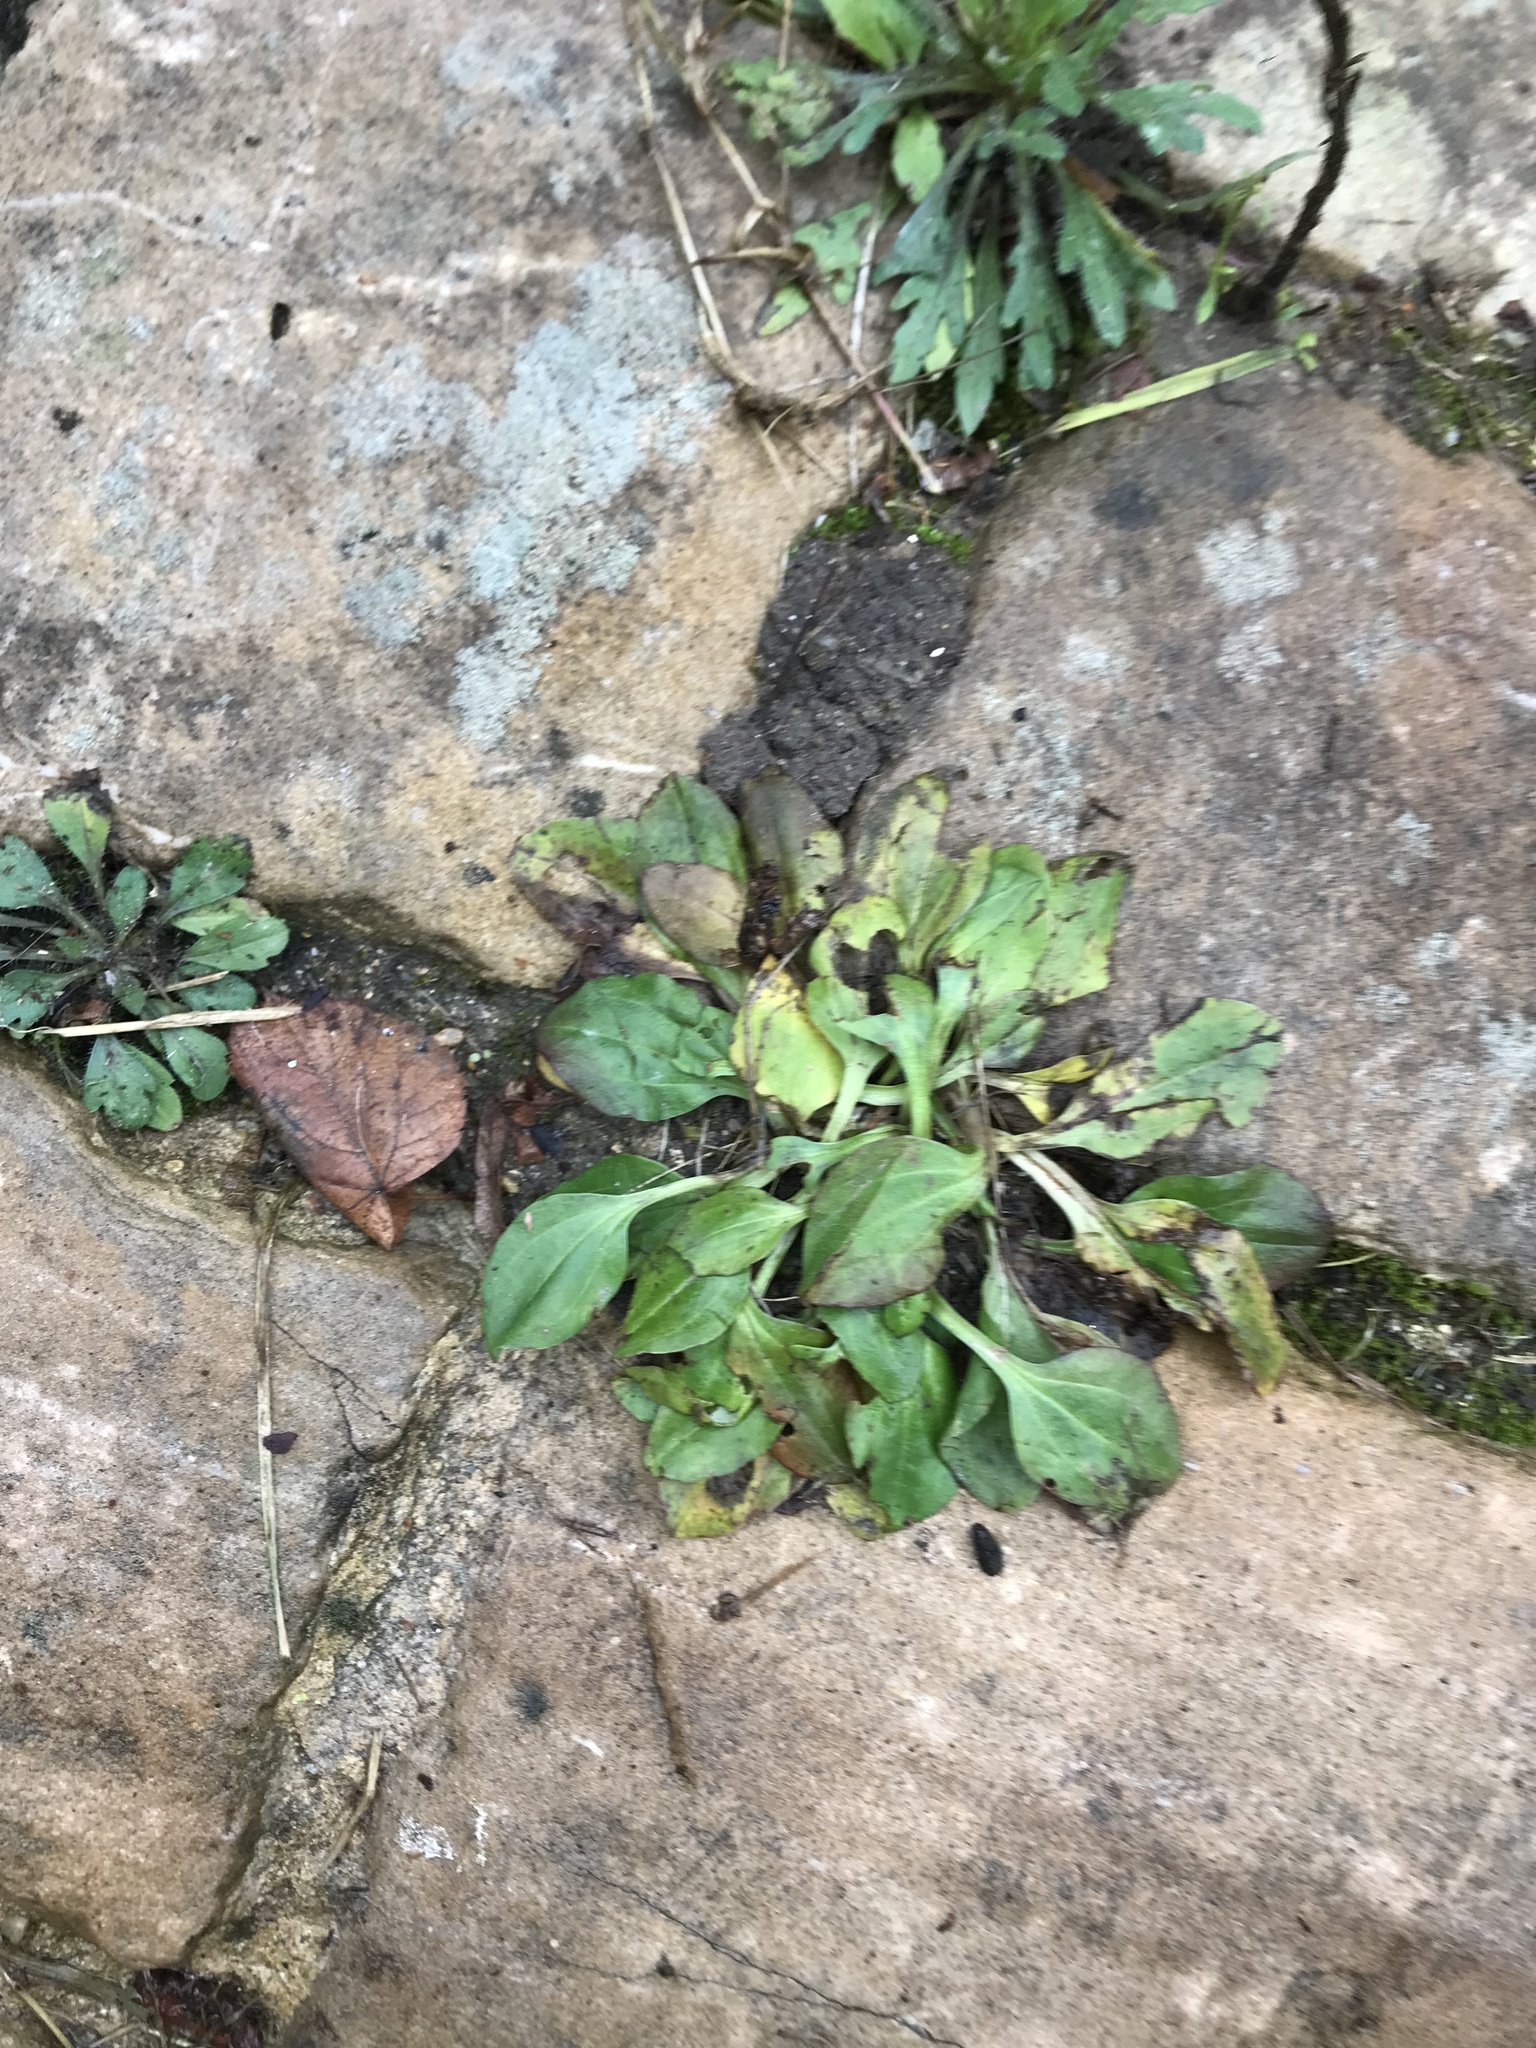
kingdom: Plantae
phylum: Tracheophyta
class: Magnoliopsida
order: Lamiales
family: Plantaginaceae
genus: Plantago
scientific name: Plantago major
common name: Common plantain
